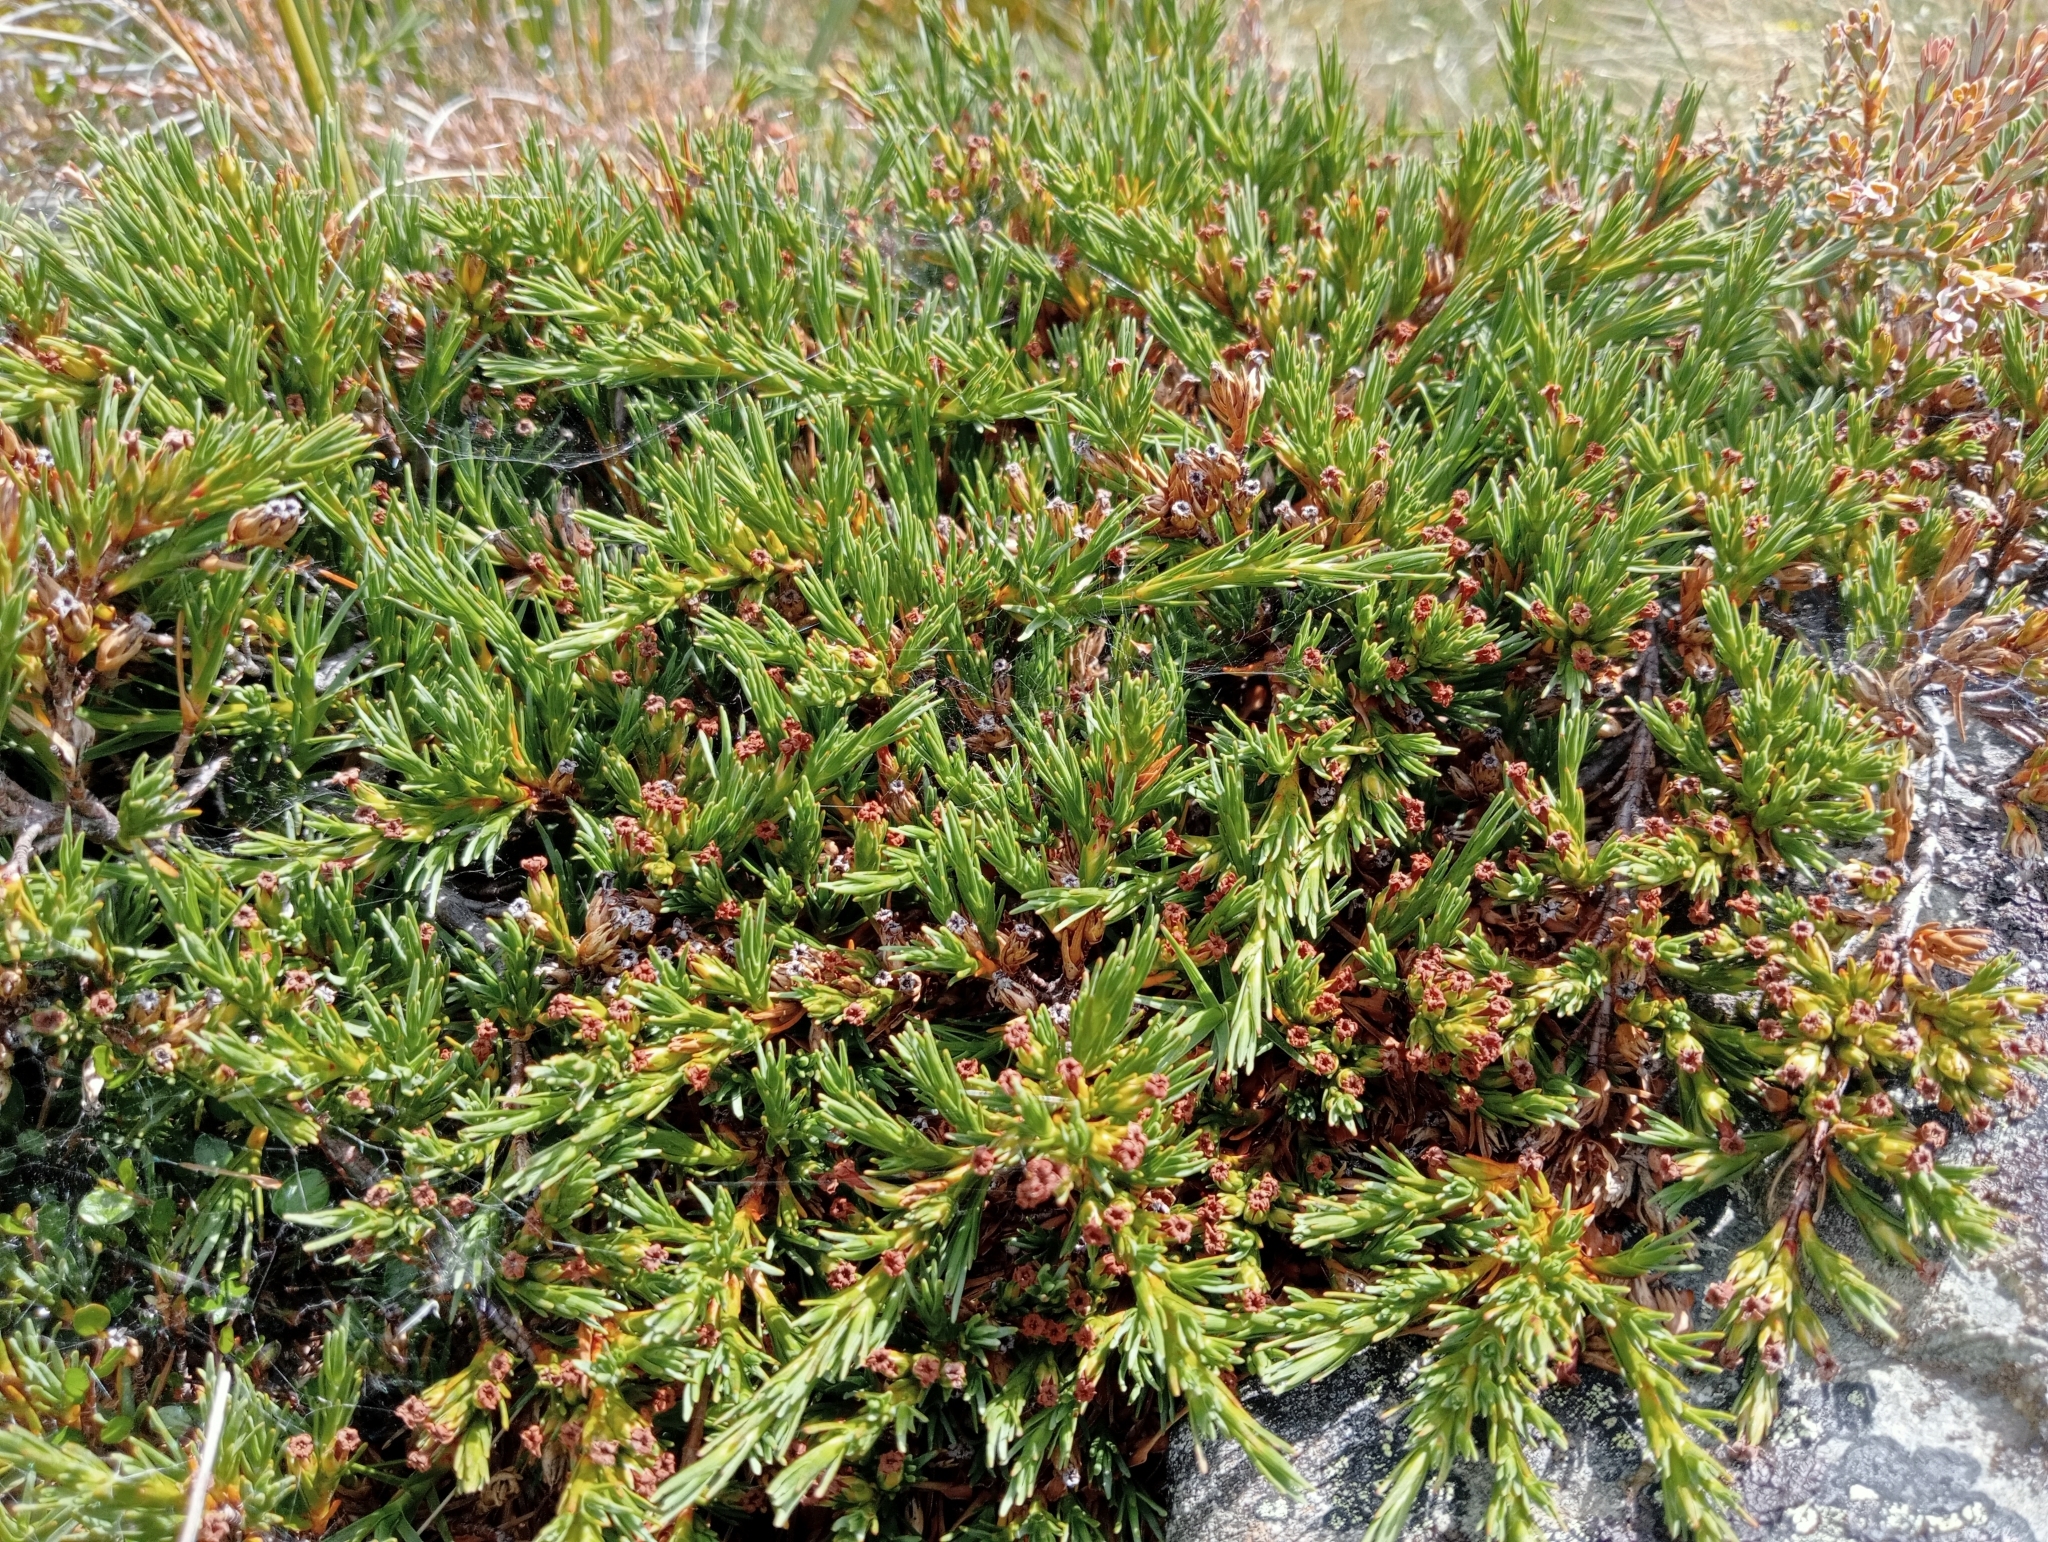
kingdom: Plantae
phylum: Tracheophyta
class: Magnoliopsida
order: Ericales
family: Ericaceae
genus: Dracophyllum
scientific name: Dracophyllum kirkii
